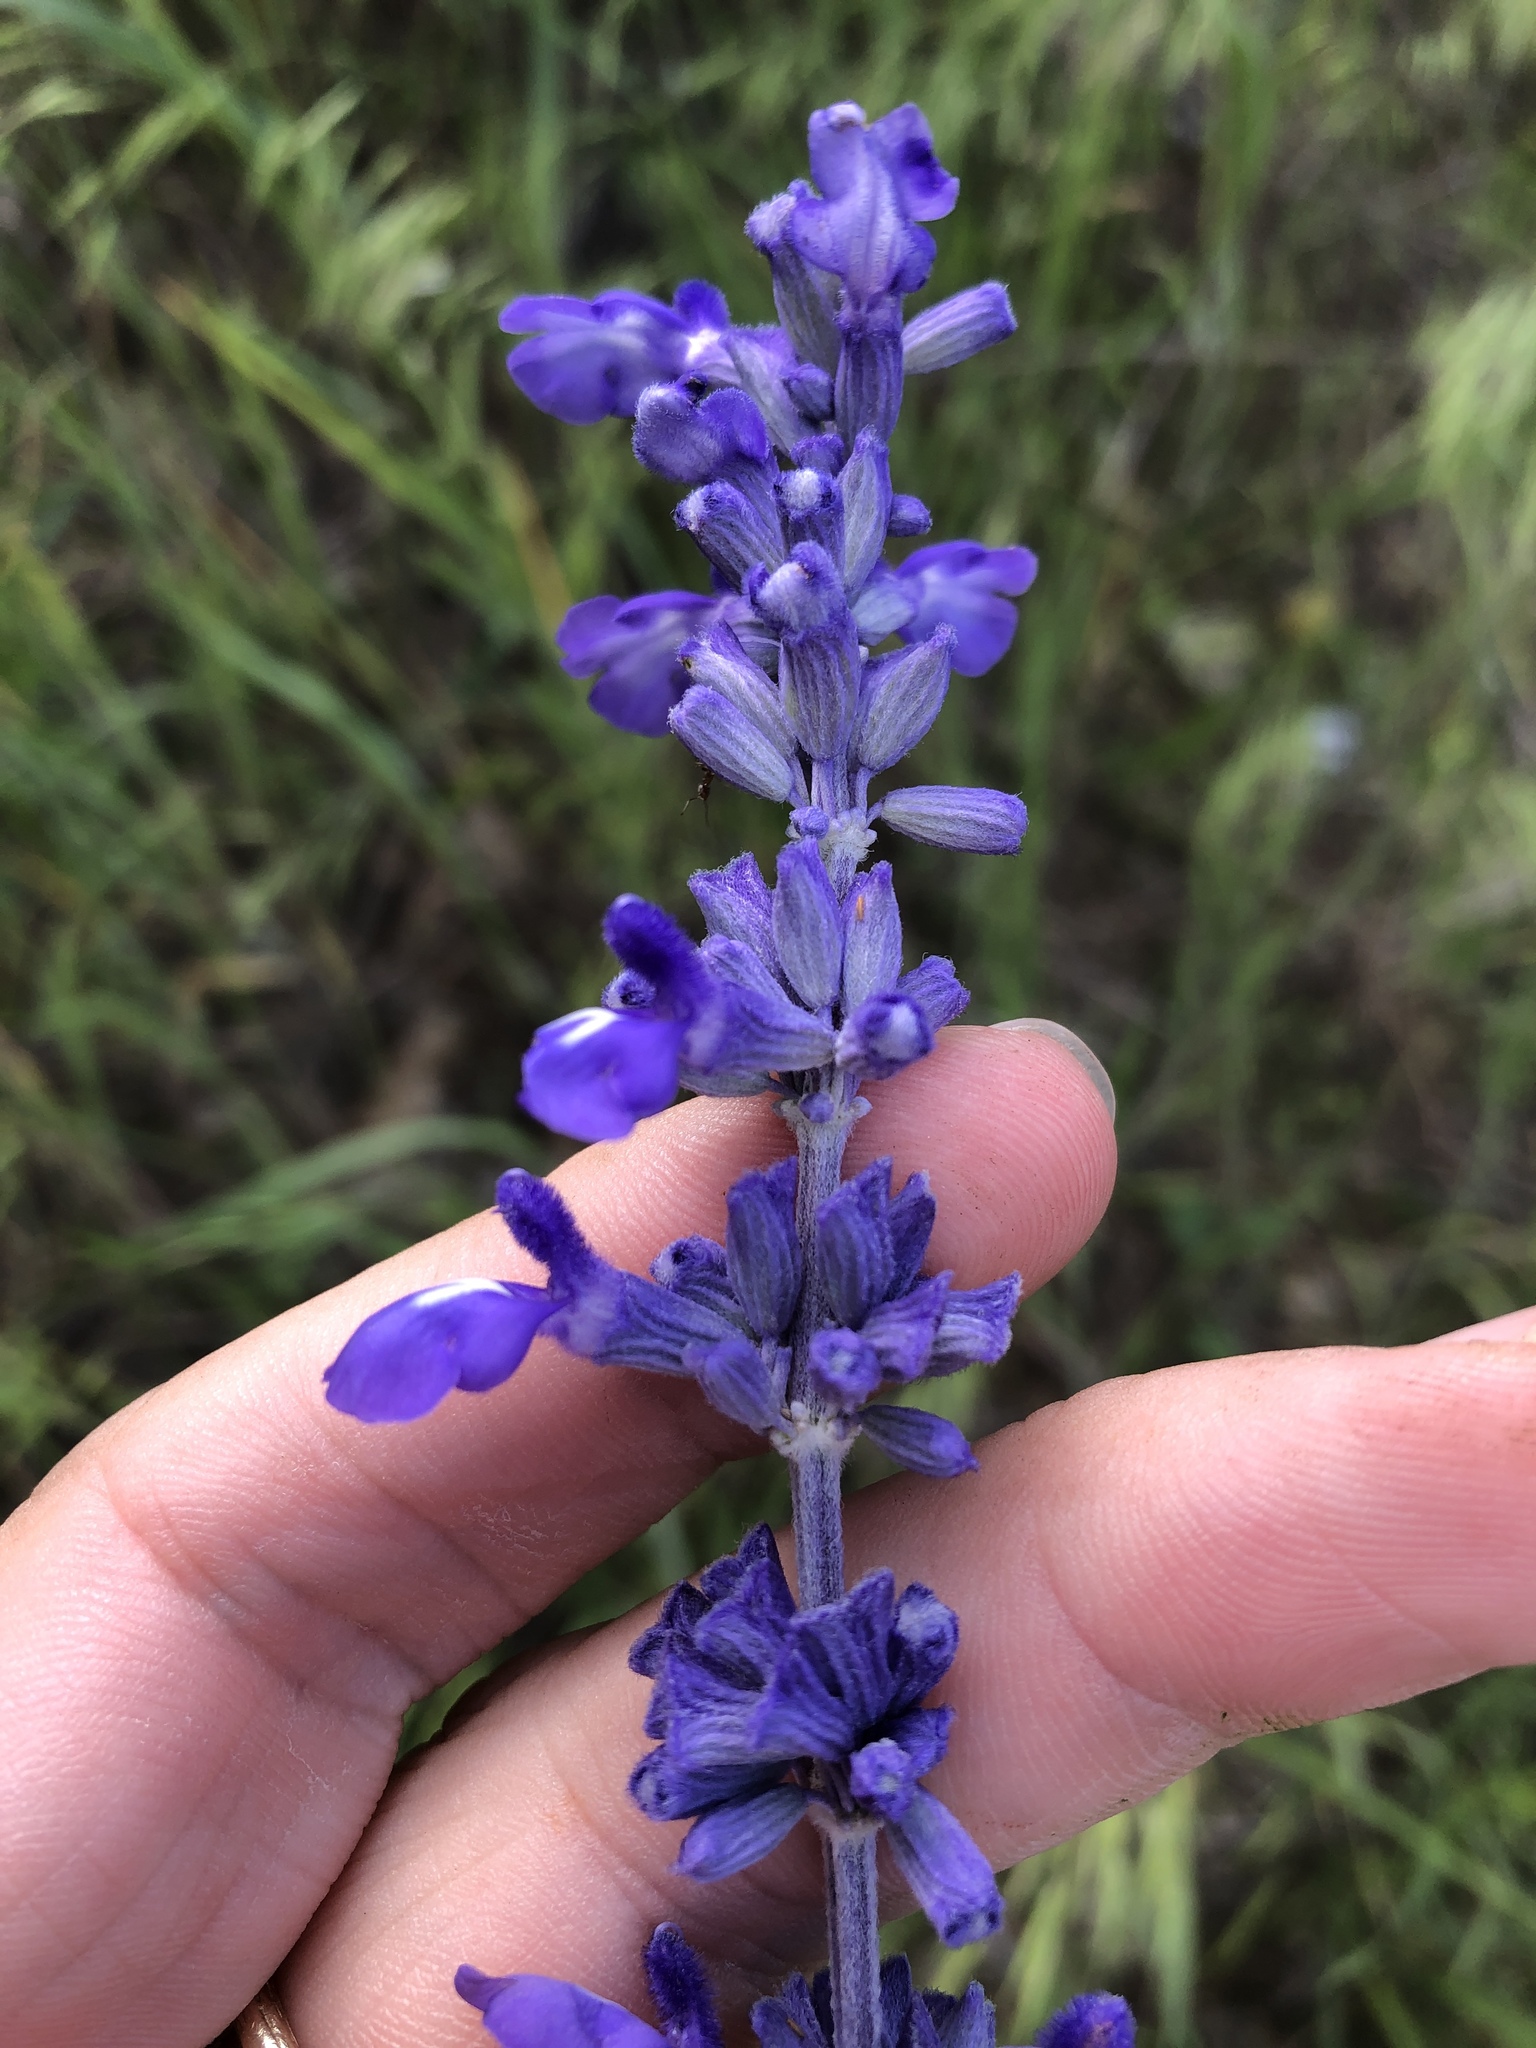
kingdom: Plantae
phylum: Tracheophyta
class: Magnoliopsida
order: Lamiales
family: Lamiaceae
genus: Salvia
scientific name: Salvia farinacea
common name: Mealy sage
